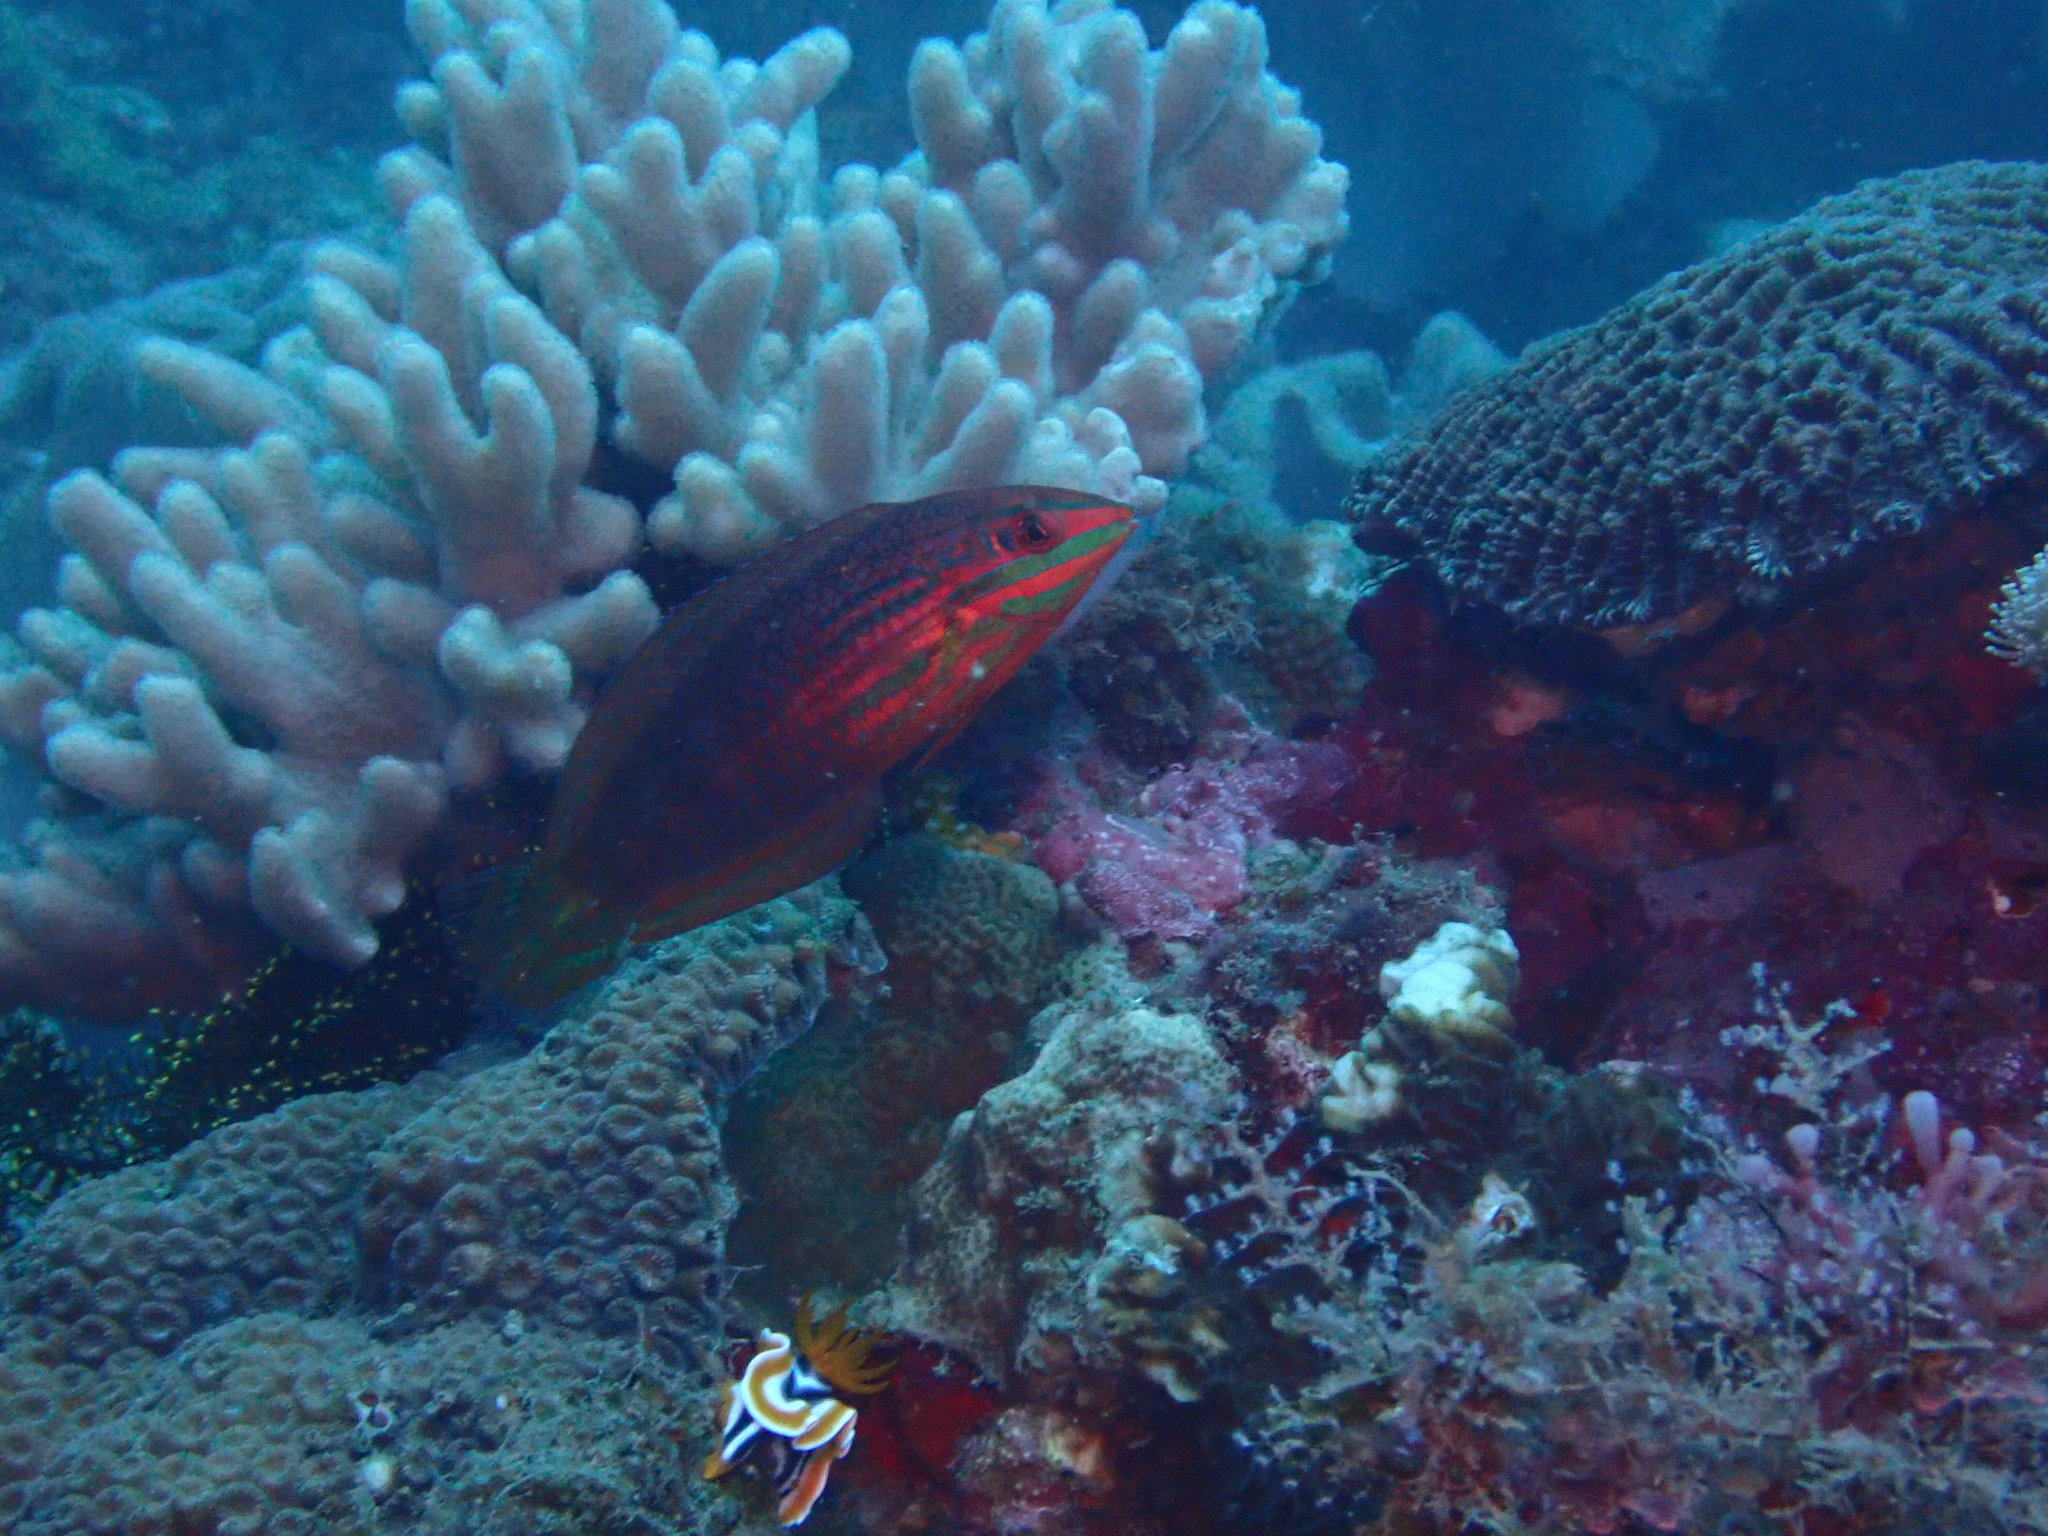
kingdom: Animalia
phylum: Chordata
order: Perciformes
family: Labridae
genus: Halichoeres
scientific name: Halichoeres biocellatus
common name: False-eyed wrasse
